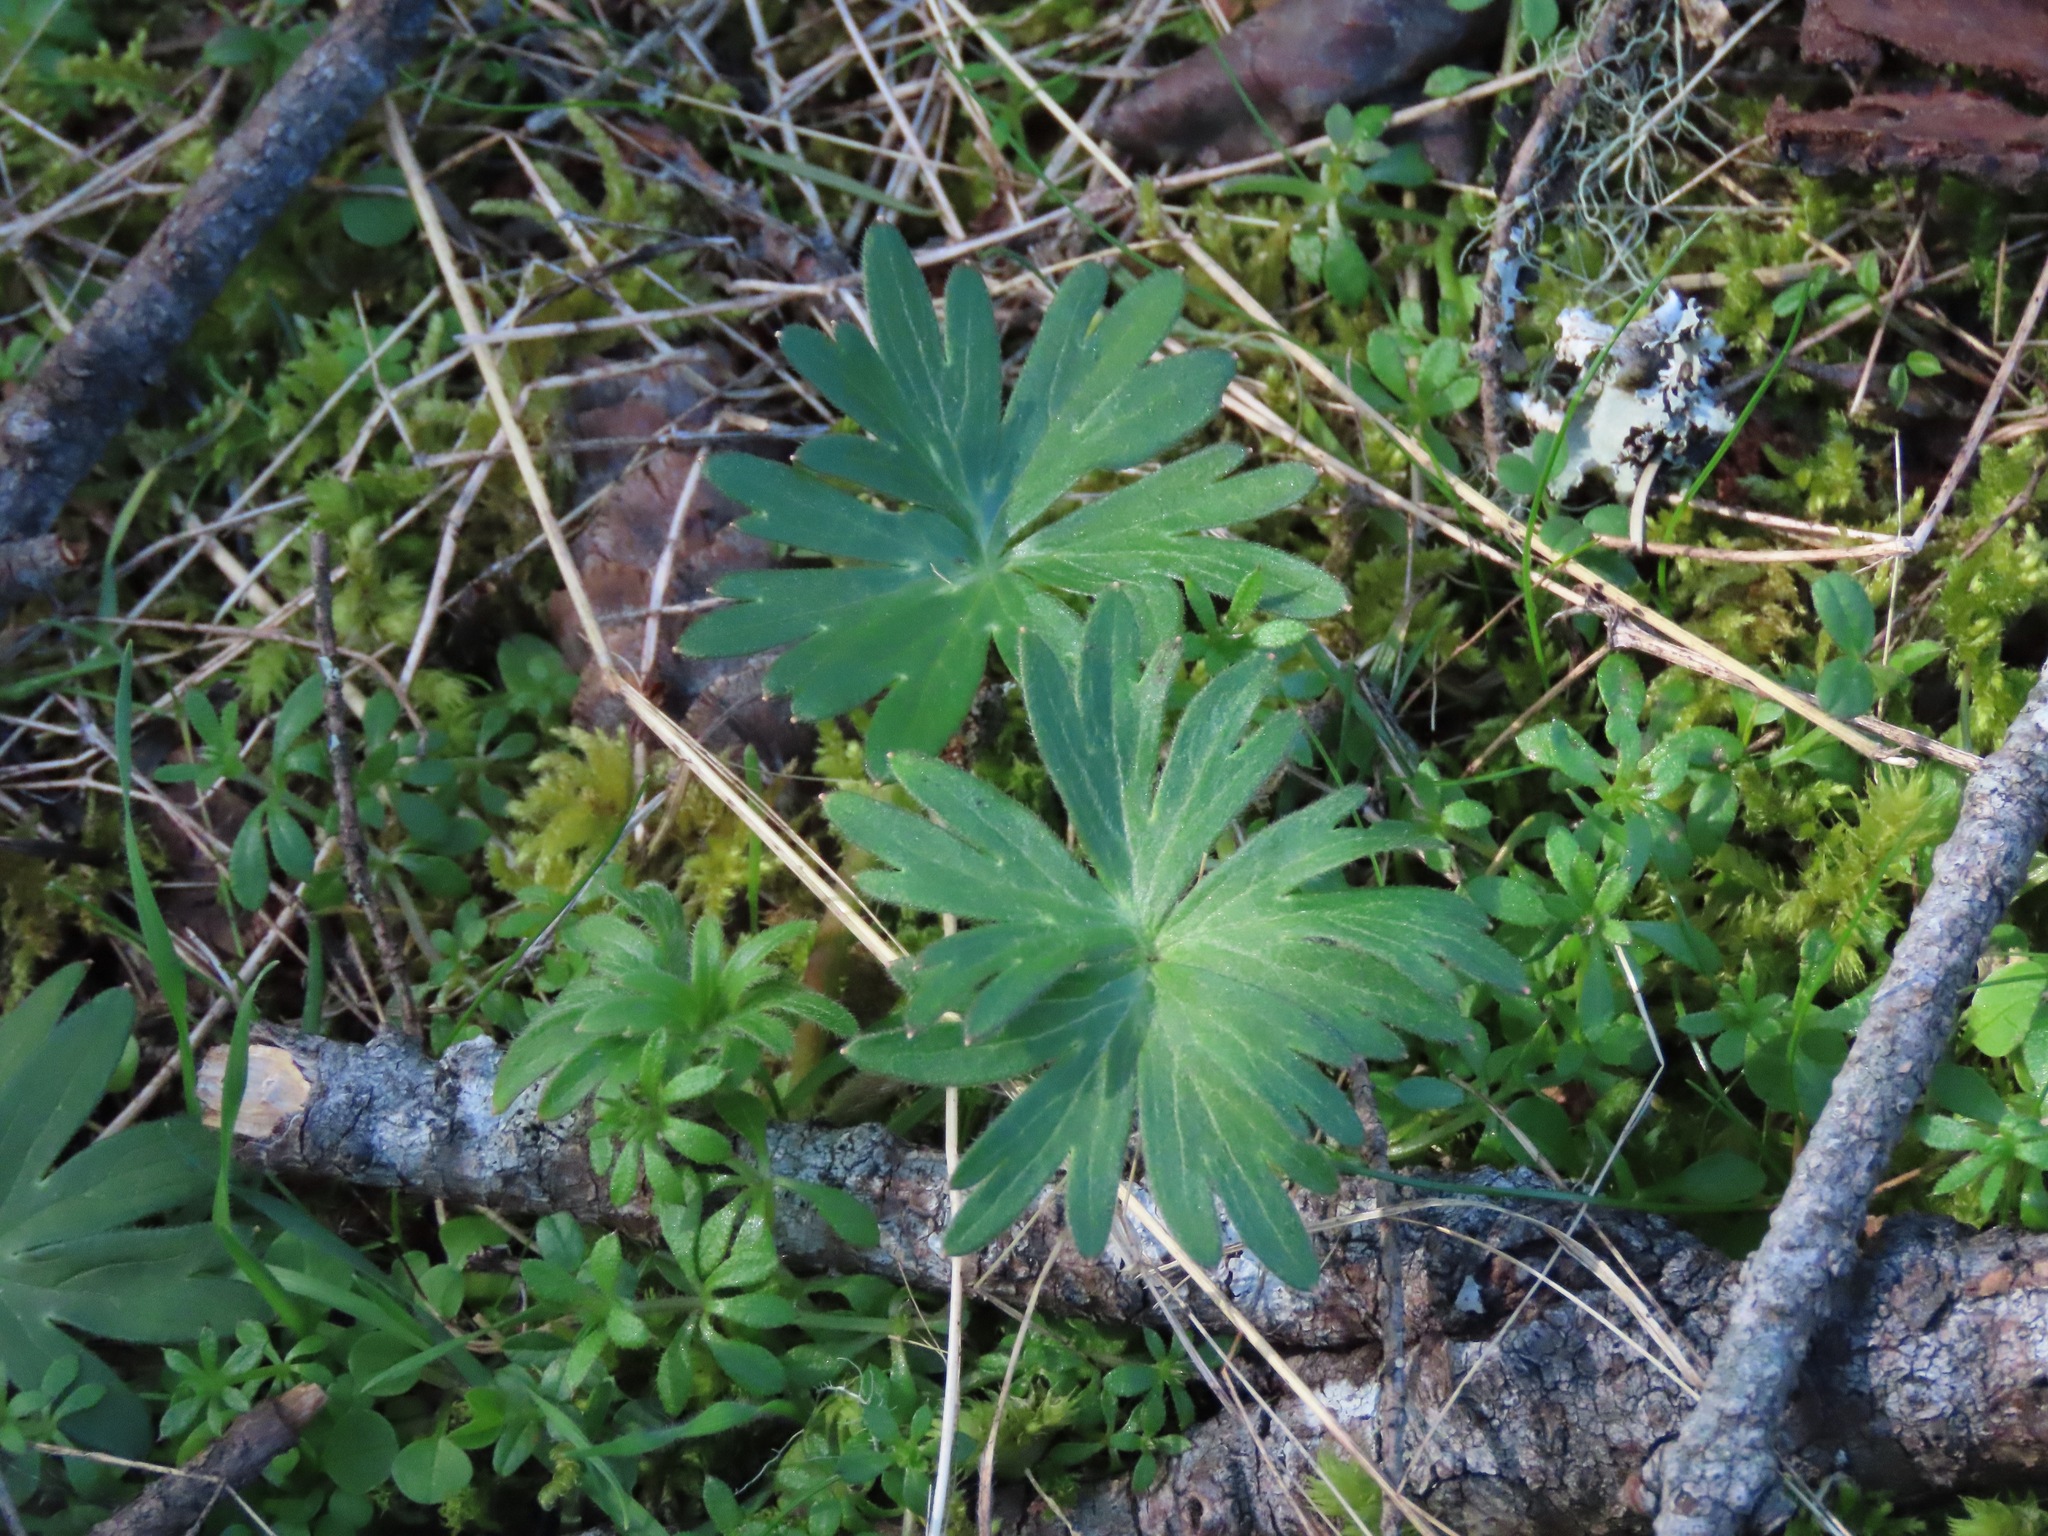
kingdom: Plantae
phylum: Tracheophyta
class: Magnoliopsida
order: Ranunculales
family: Ranunculaceae
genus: Delphinium
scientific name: Delphinium menziesii
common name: Menzies's larkspur
